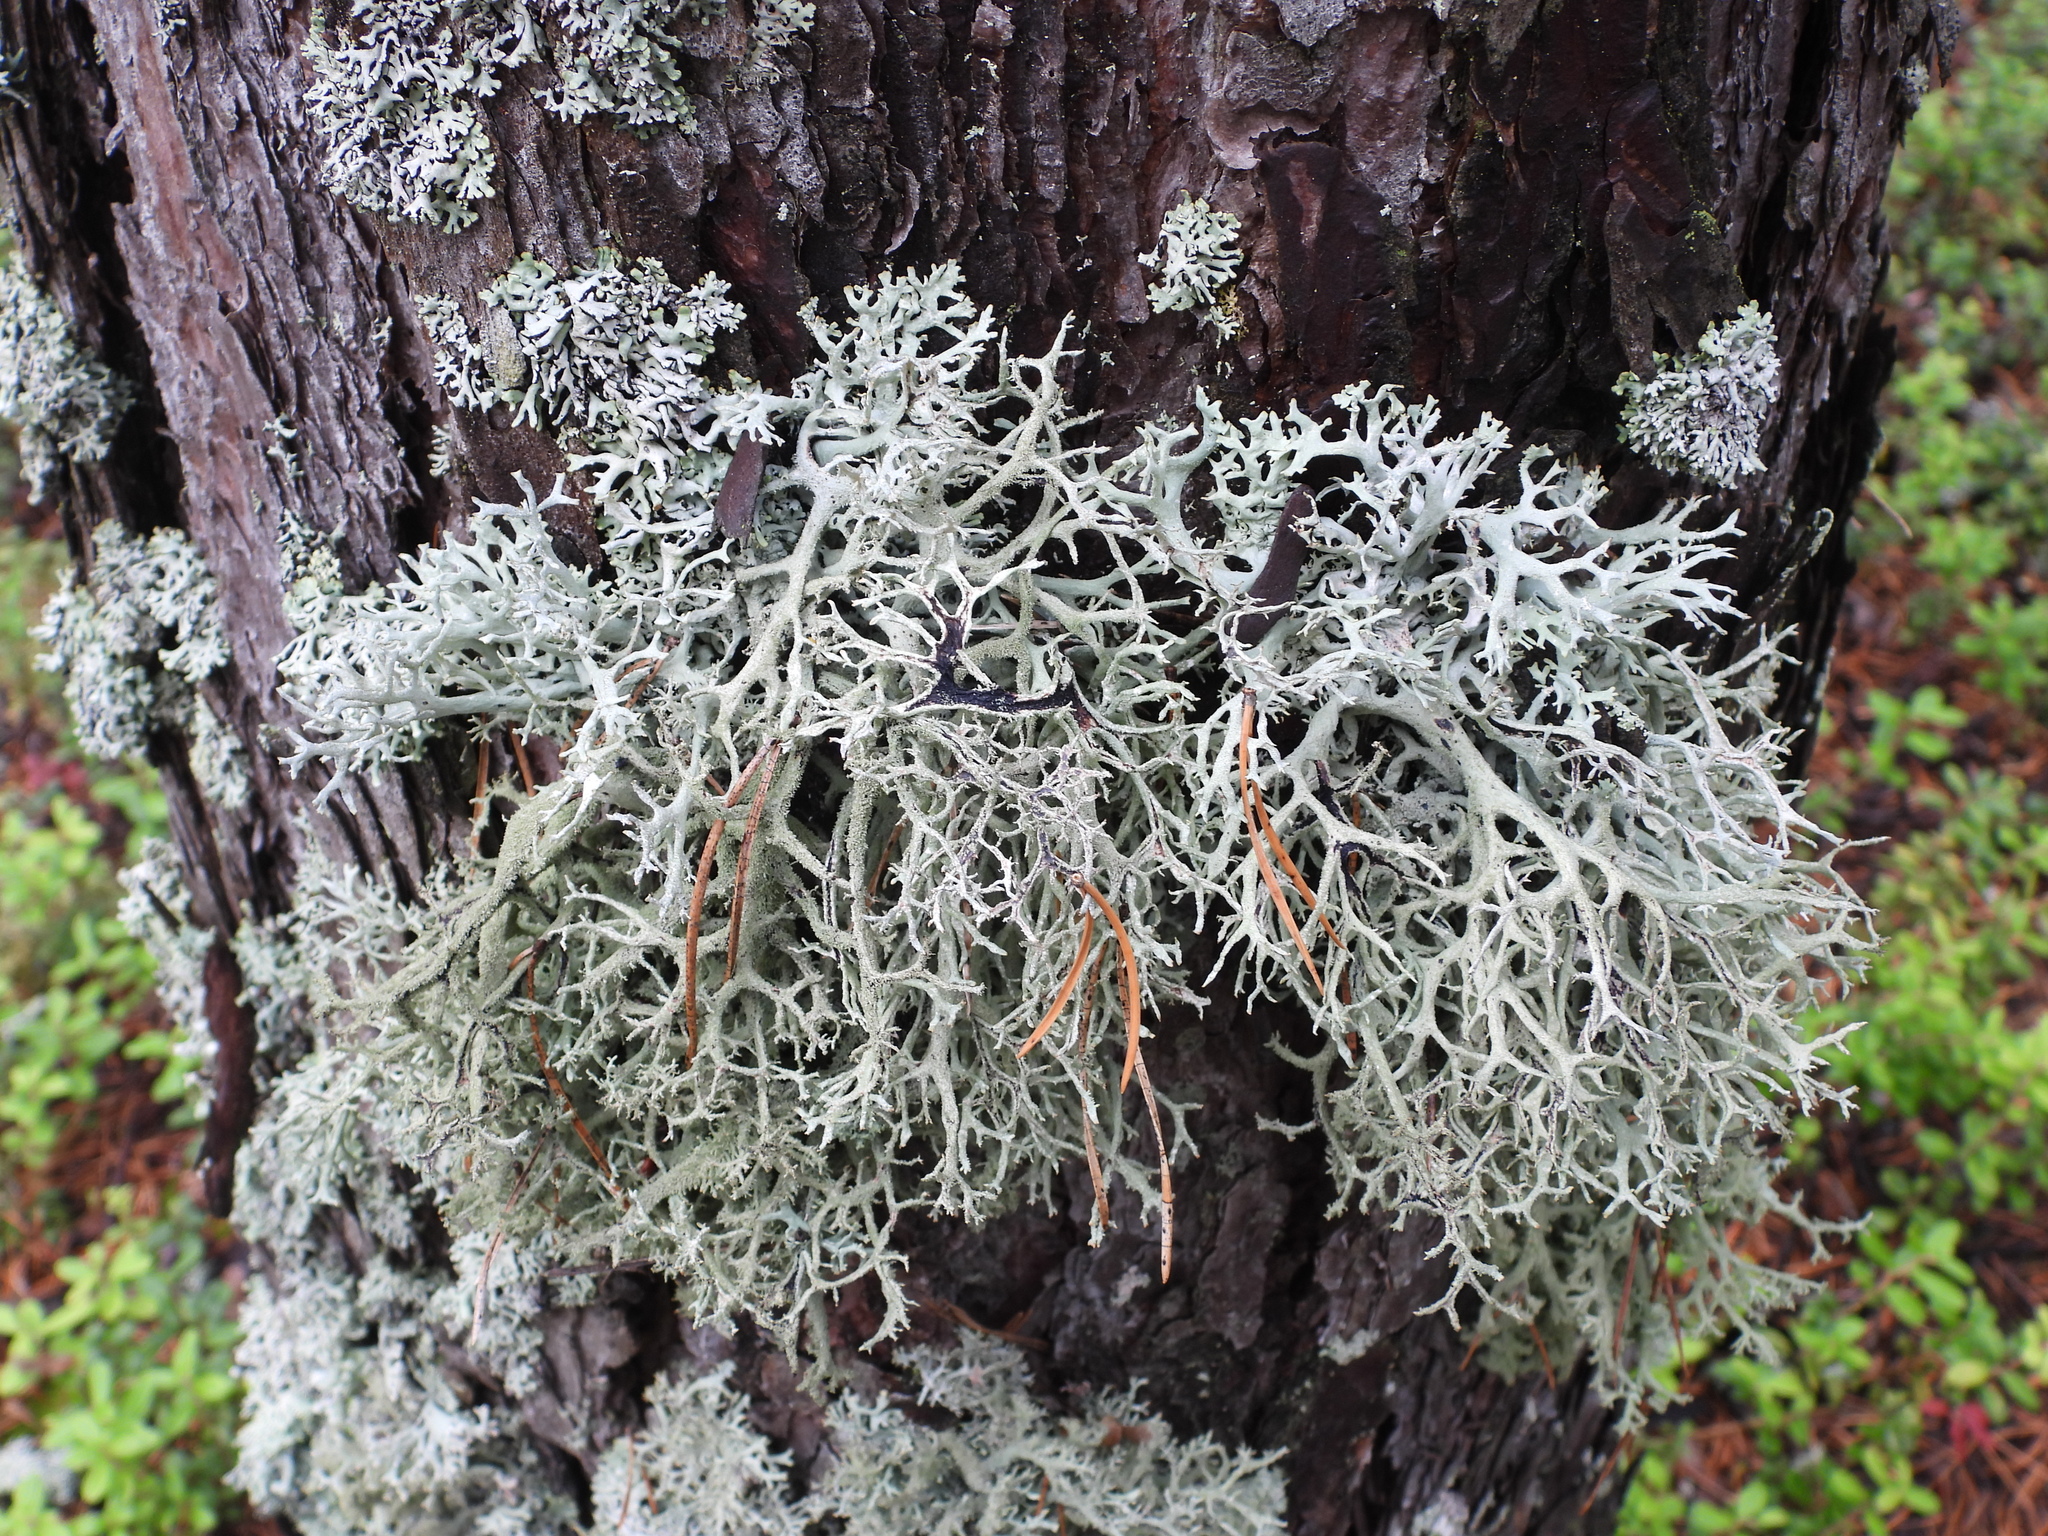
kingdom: Fungi
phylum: Ascomycota
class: Lecanoromycetes
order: Lecanorales
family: Parmeliaceae
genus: Pseudevernia
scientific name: Pseudevernia furfuracea
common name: Tree moss
